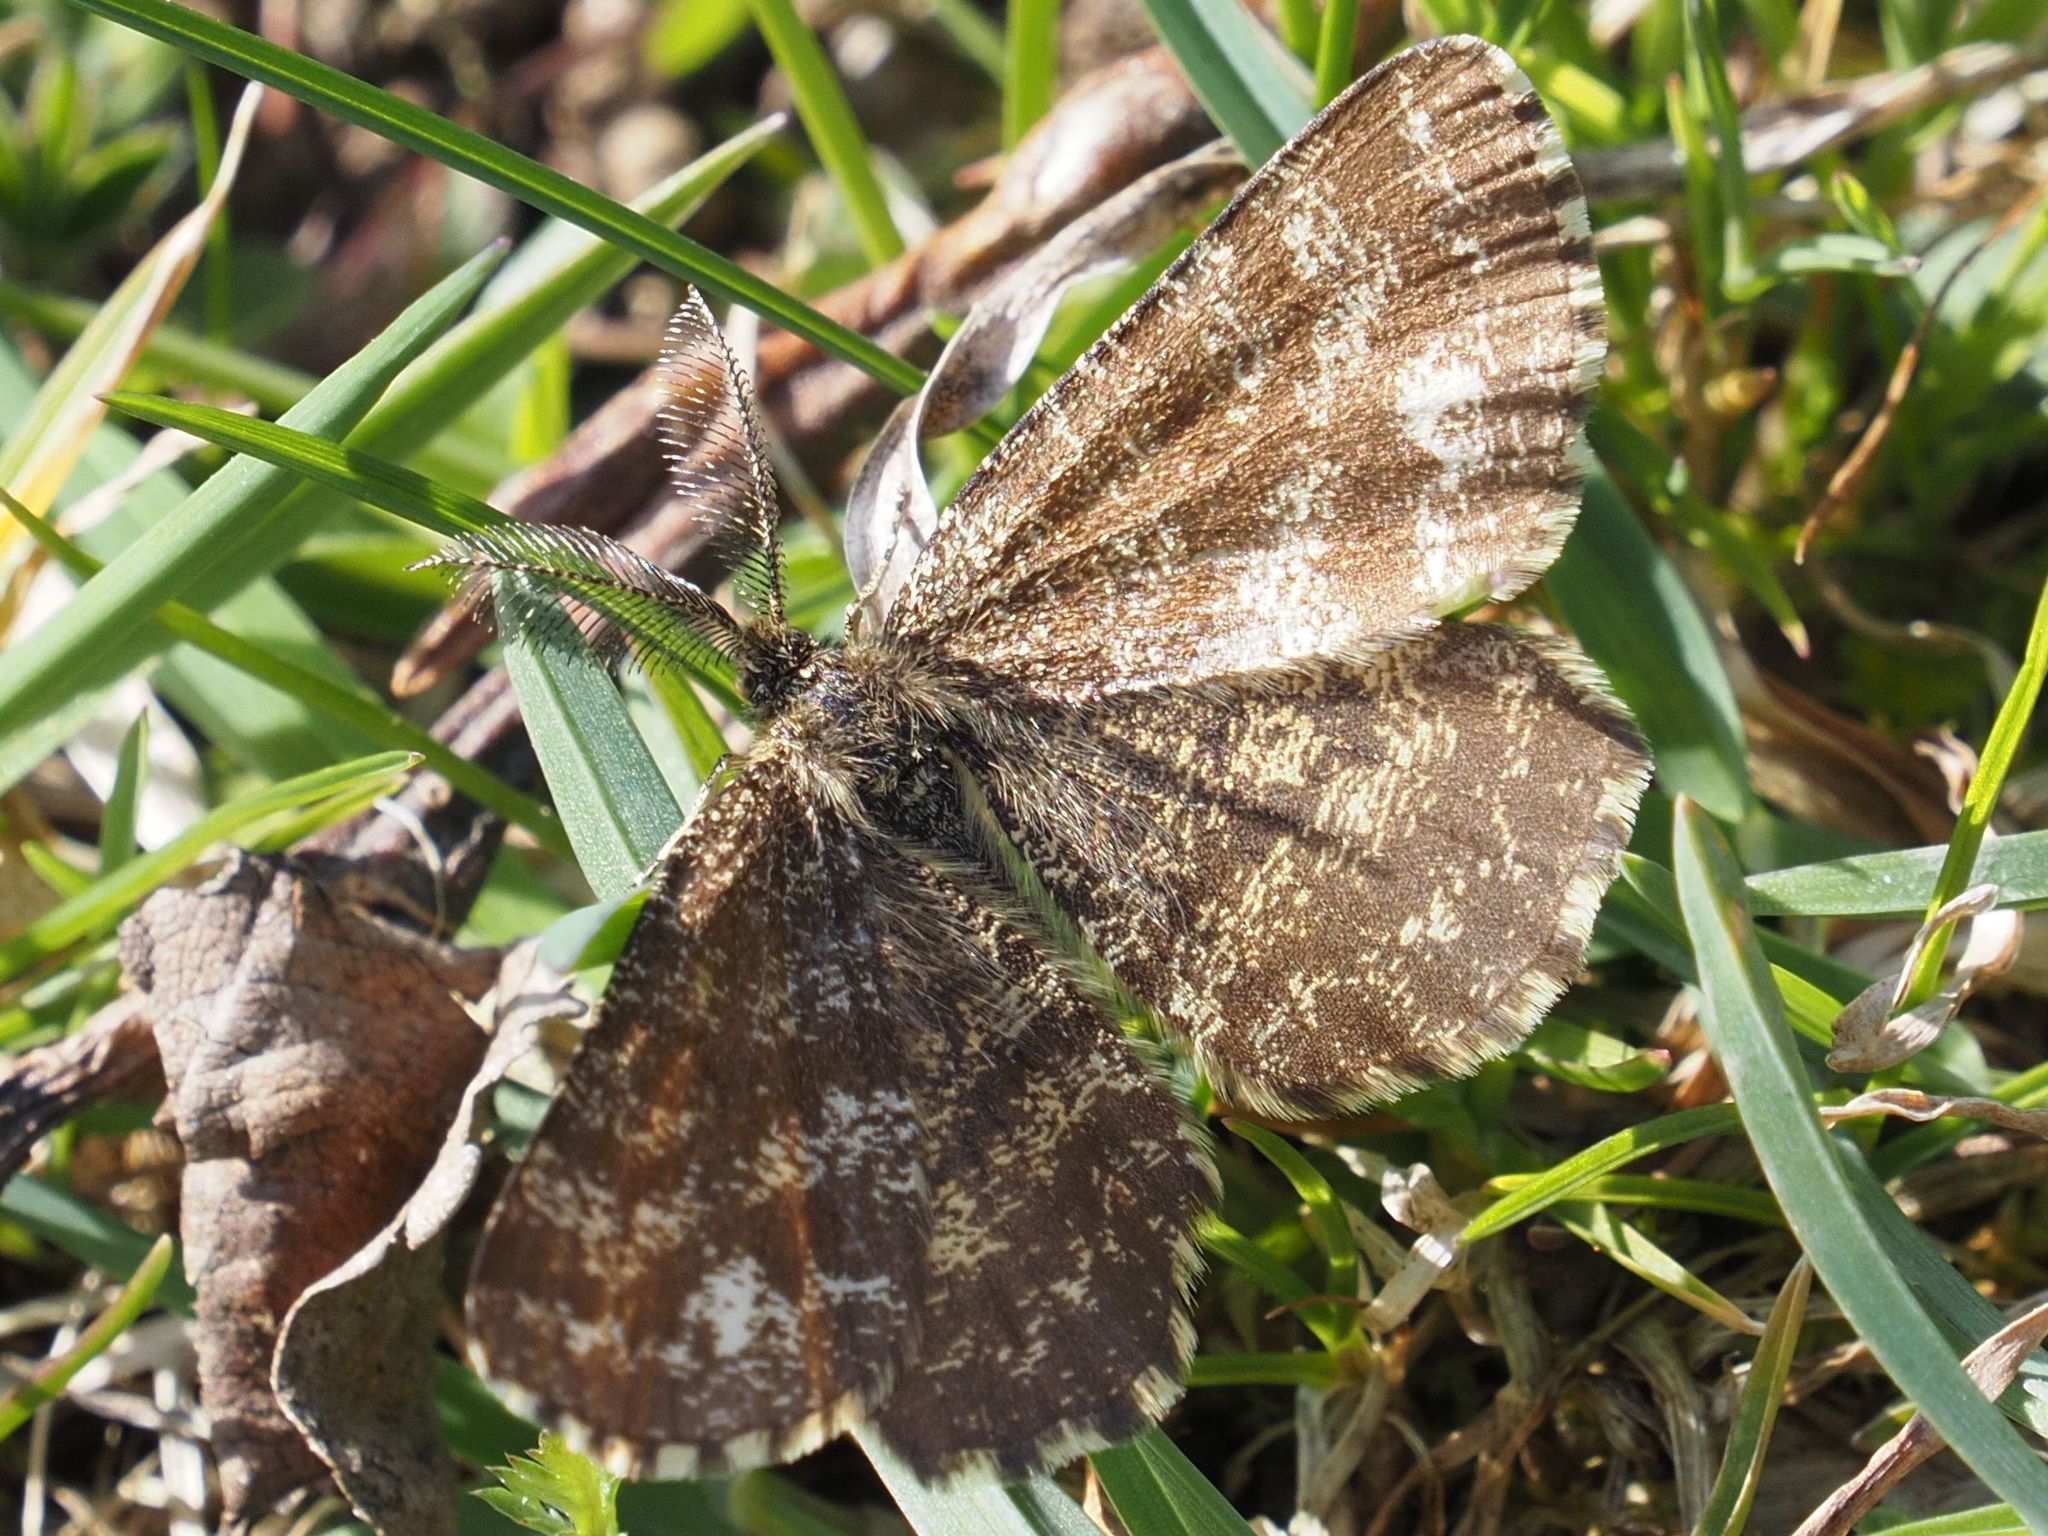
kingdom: Animalia
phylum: Arthropoda
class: Insecta
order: Lepidoptera
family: Geometridae
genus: Ematurga
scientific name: Ematurga atomaria
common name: Common heath
